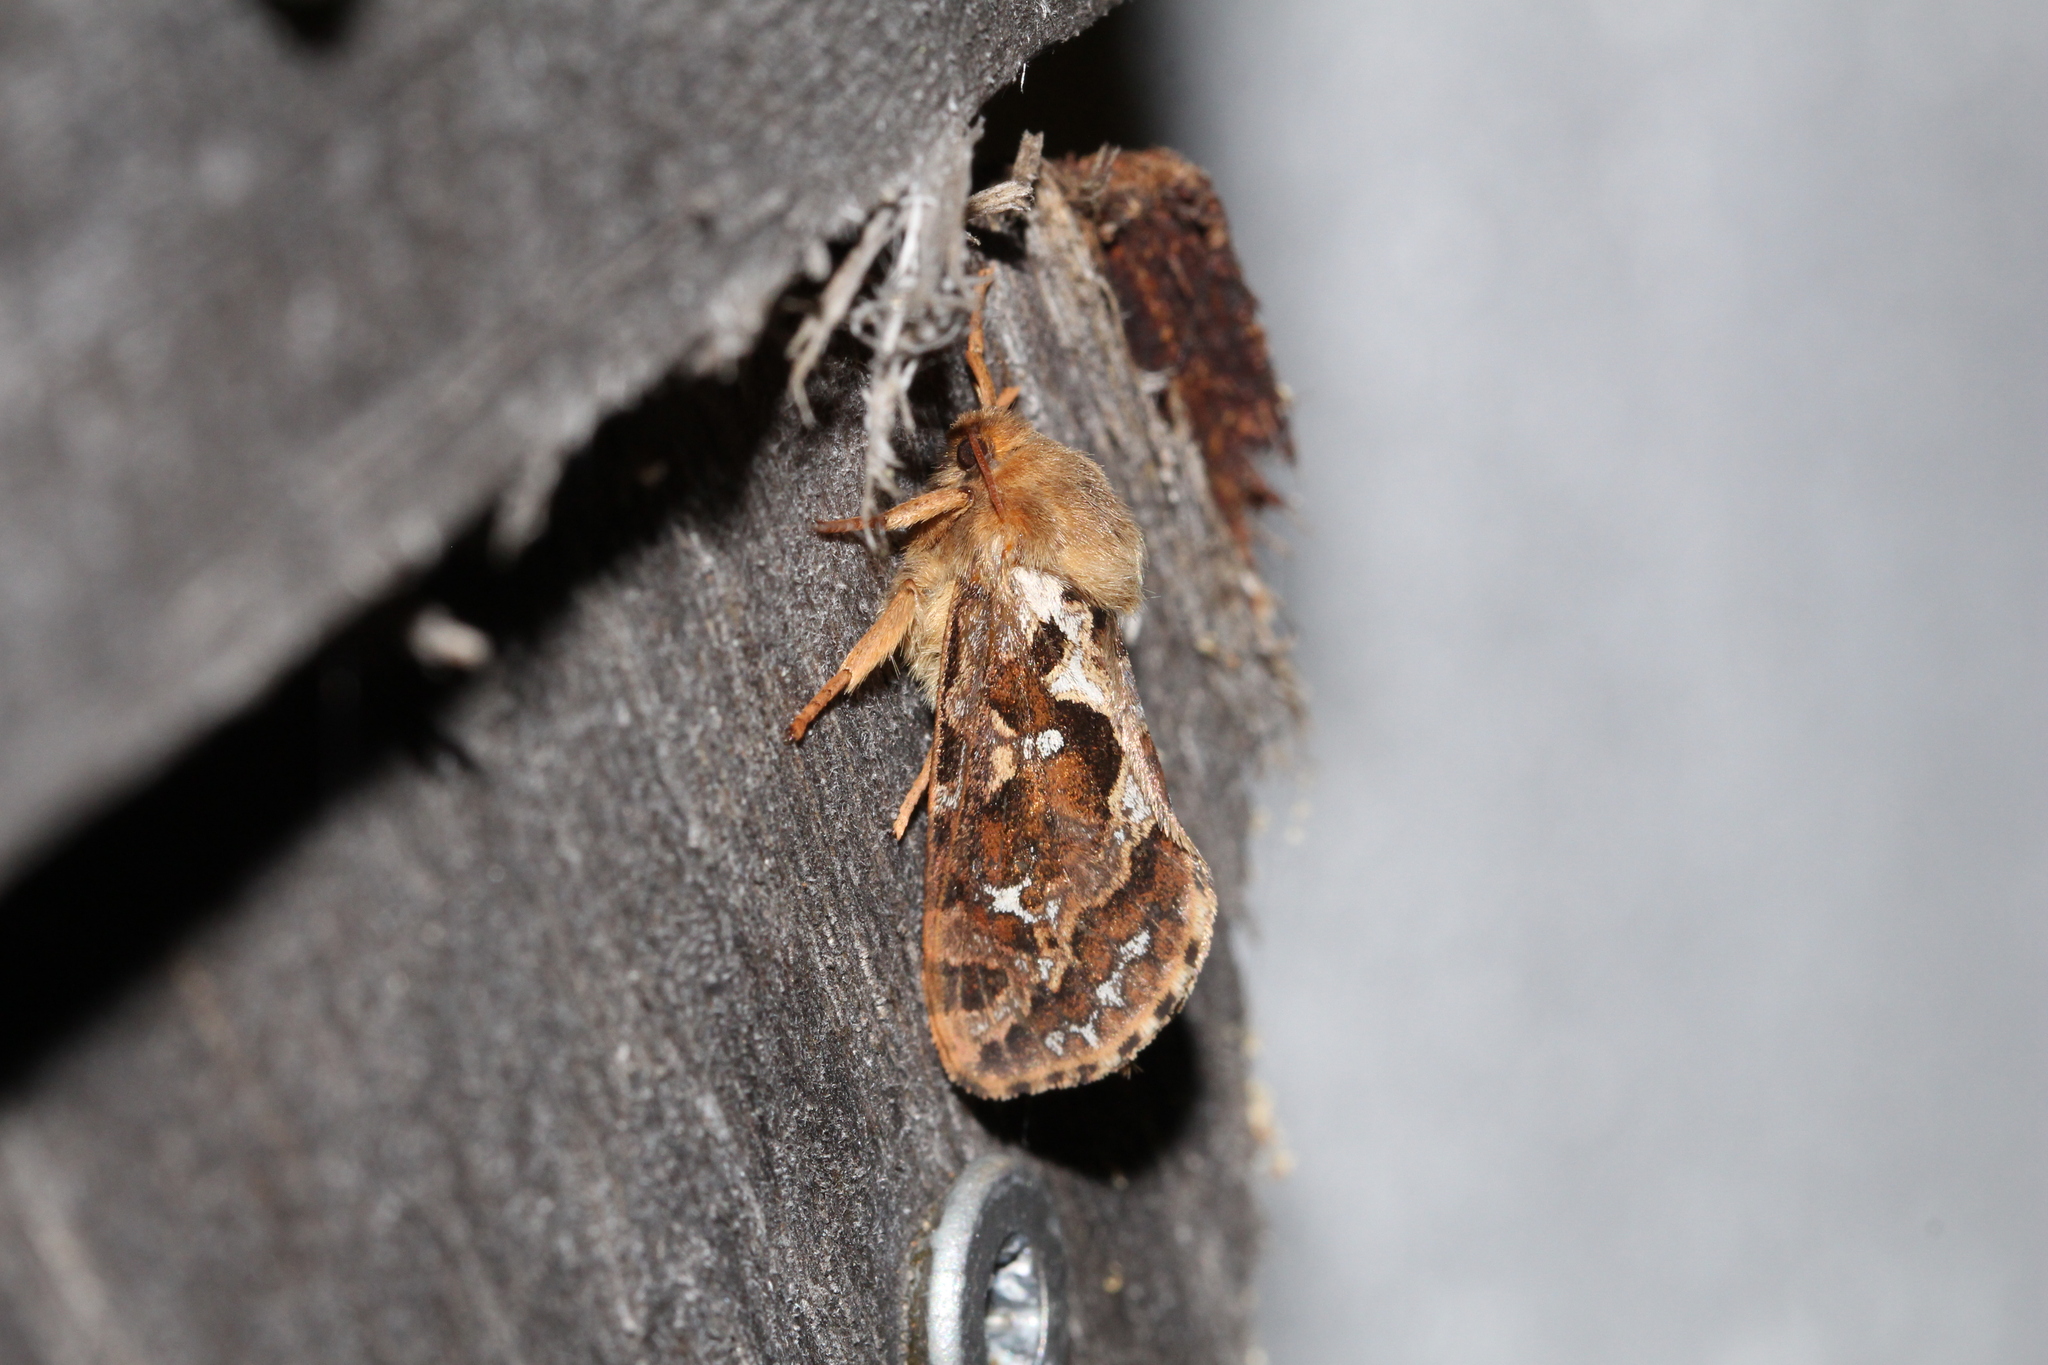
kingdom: Animalia
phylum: Arthropoda
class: Insecta
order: Lepidoptera
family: Hepialidae
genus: Korscheltellus
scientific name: Korscheltellus fusconebulosus
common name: Map-winged swift
